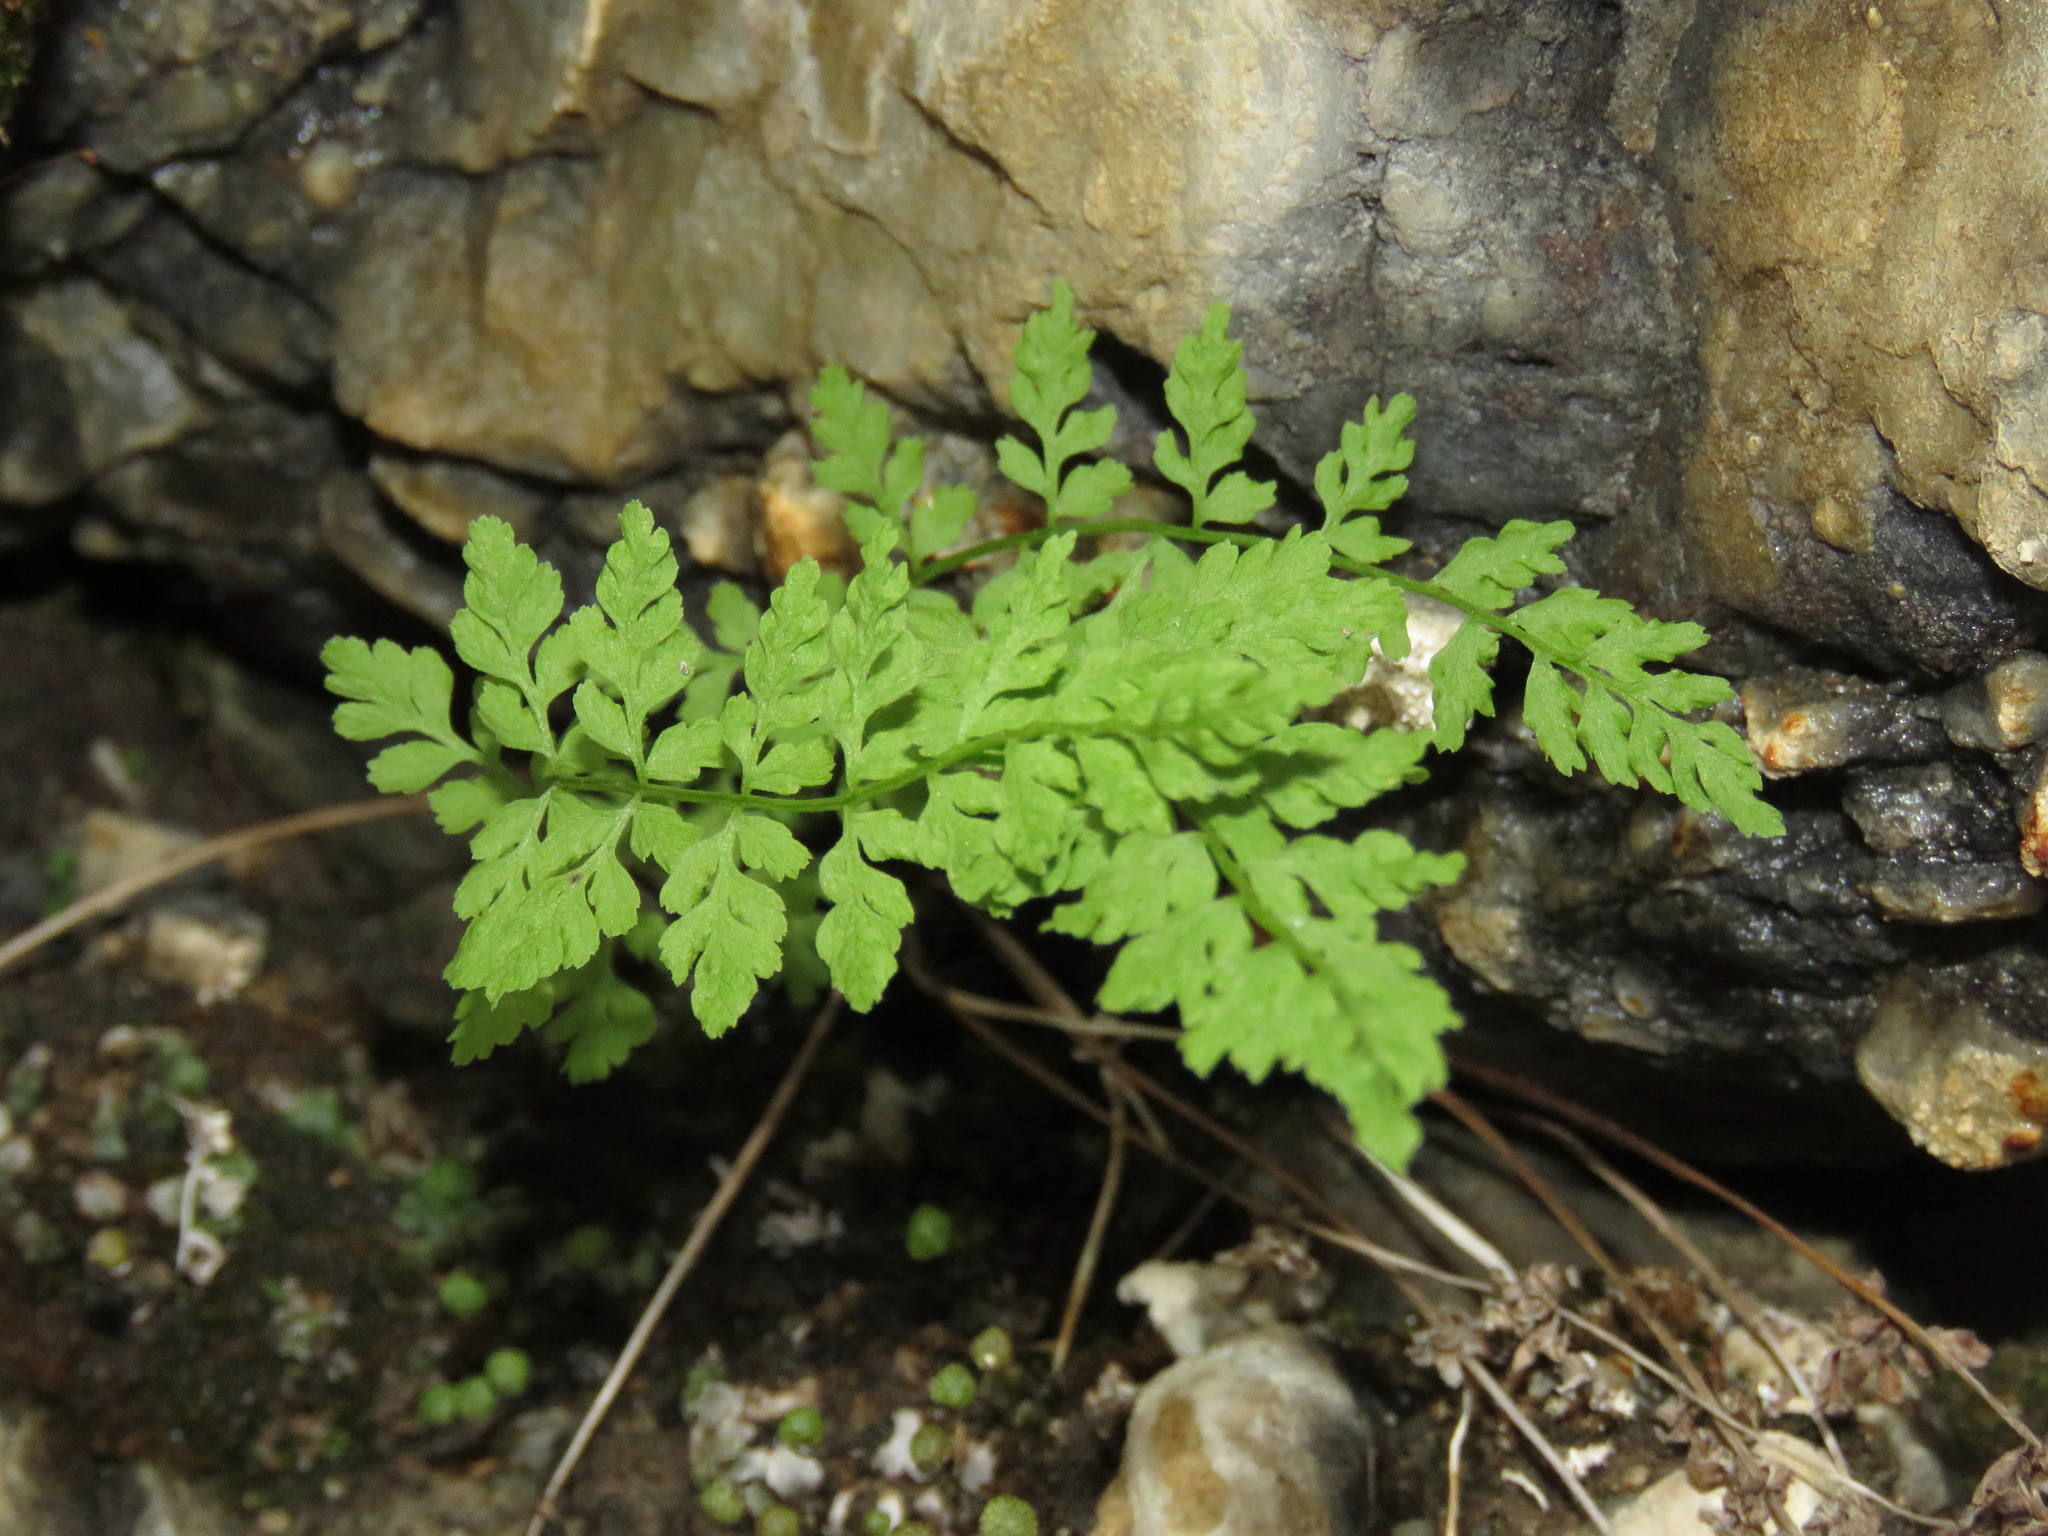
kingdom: Plantae
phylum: Tracheophyta
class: Polypodiopsida
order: Polypodiales
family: Cystopteridaceae
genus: Cystopteris
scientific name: Cystopteris fragilis
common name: Brittle bladder fern
